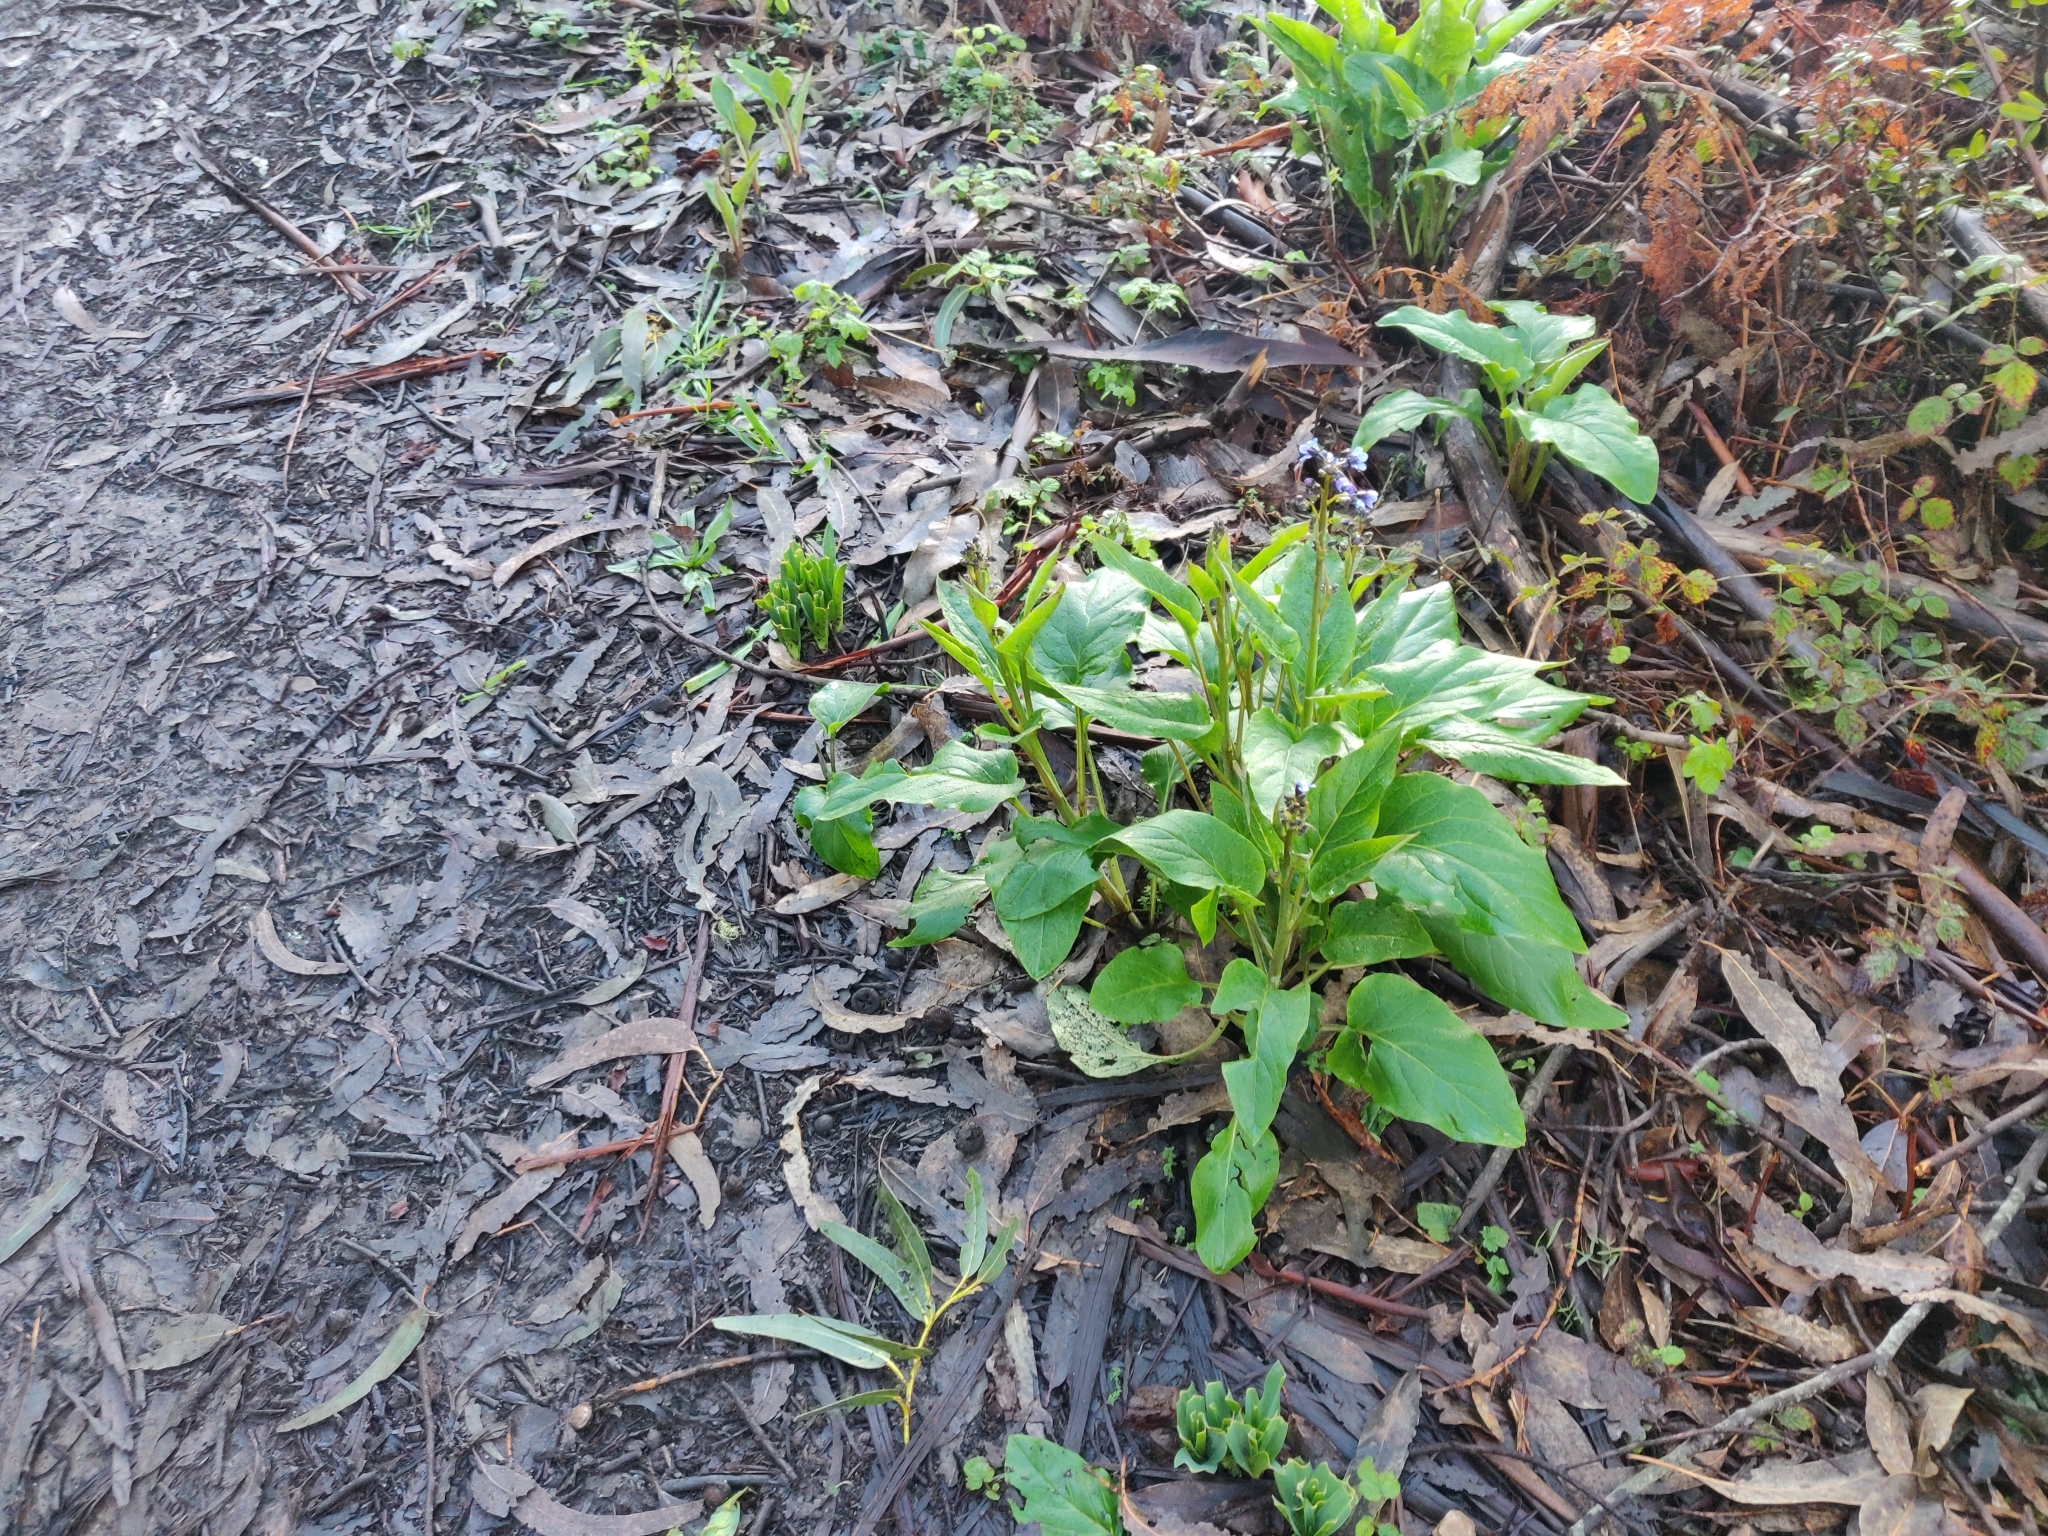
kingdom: Plantae
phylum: Tracheophyta
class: Magnoliopsida
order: Boraginales
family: Boraginaceae
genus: Adelinia
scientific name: Adelinia grande
